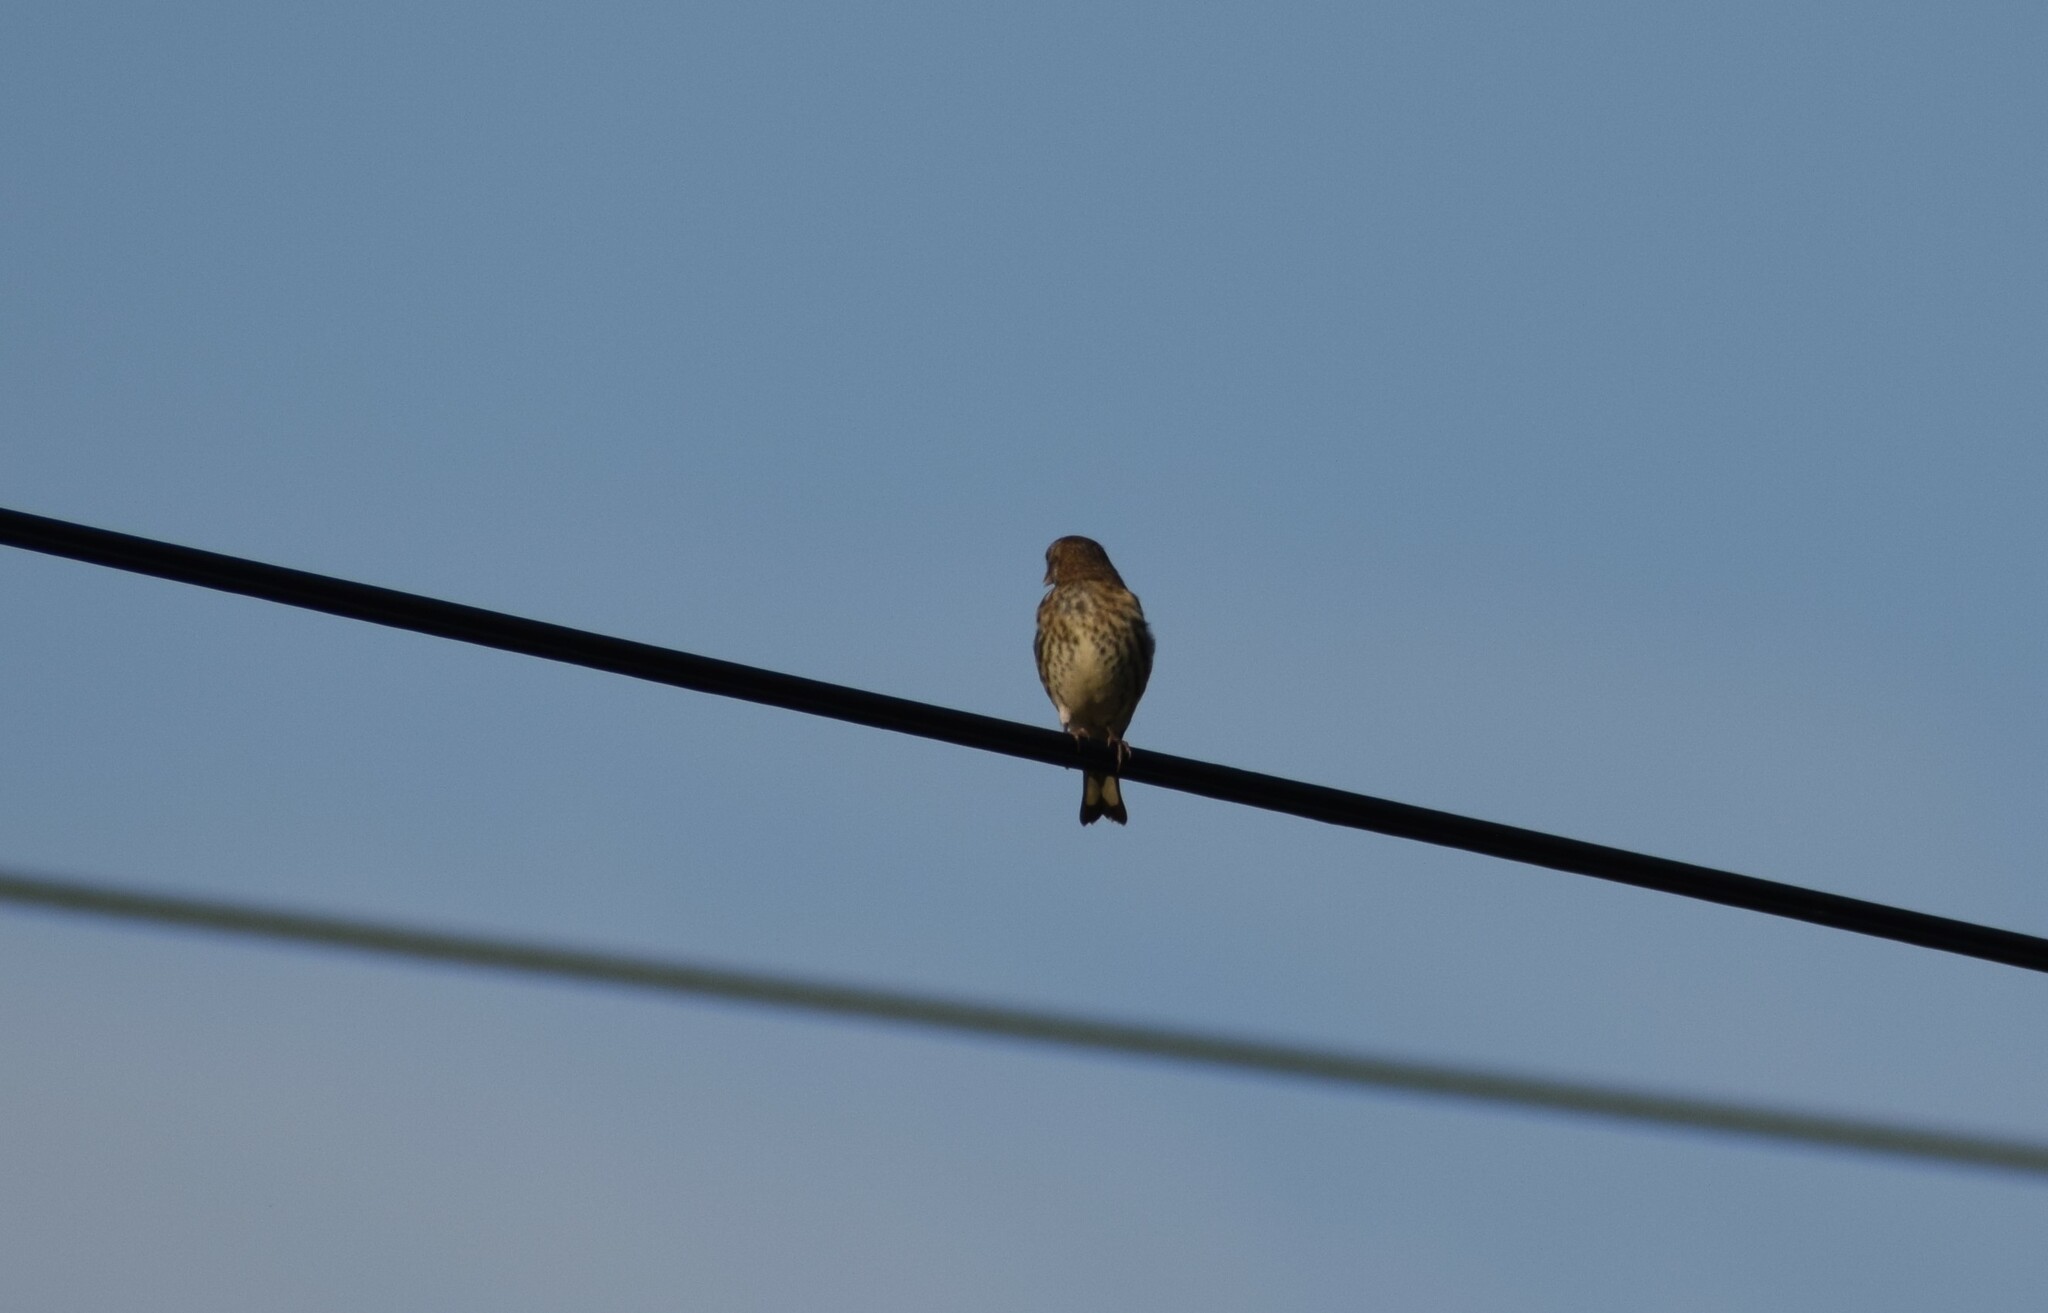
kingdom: Animalia
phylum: Chordata
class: Aves
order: Passeriformes
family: Fringillidae
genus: Carduelis
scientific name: Carduelis carduelis
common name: European goldfinch
